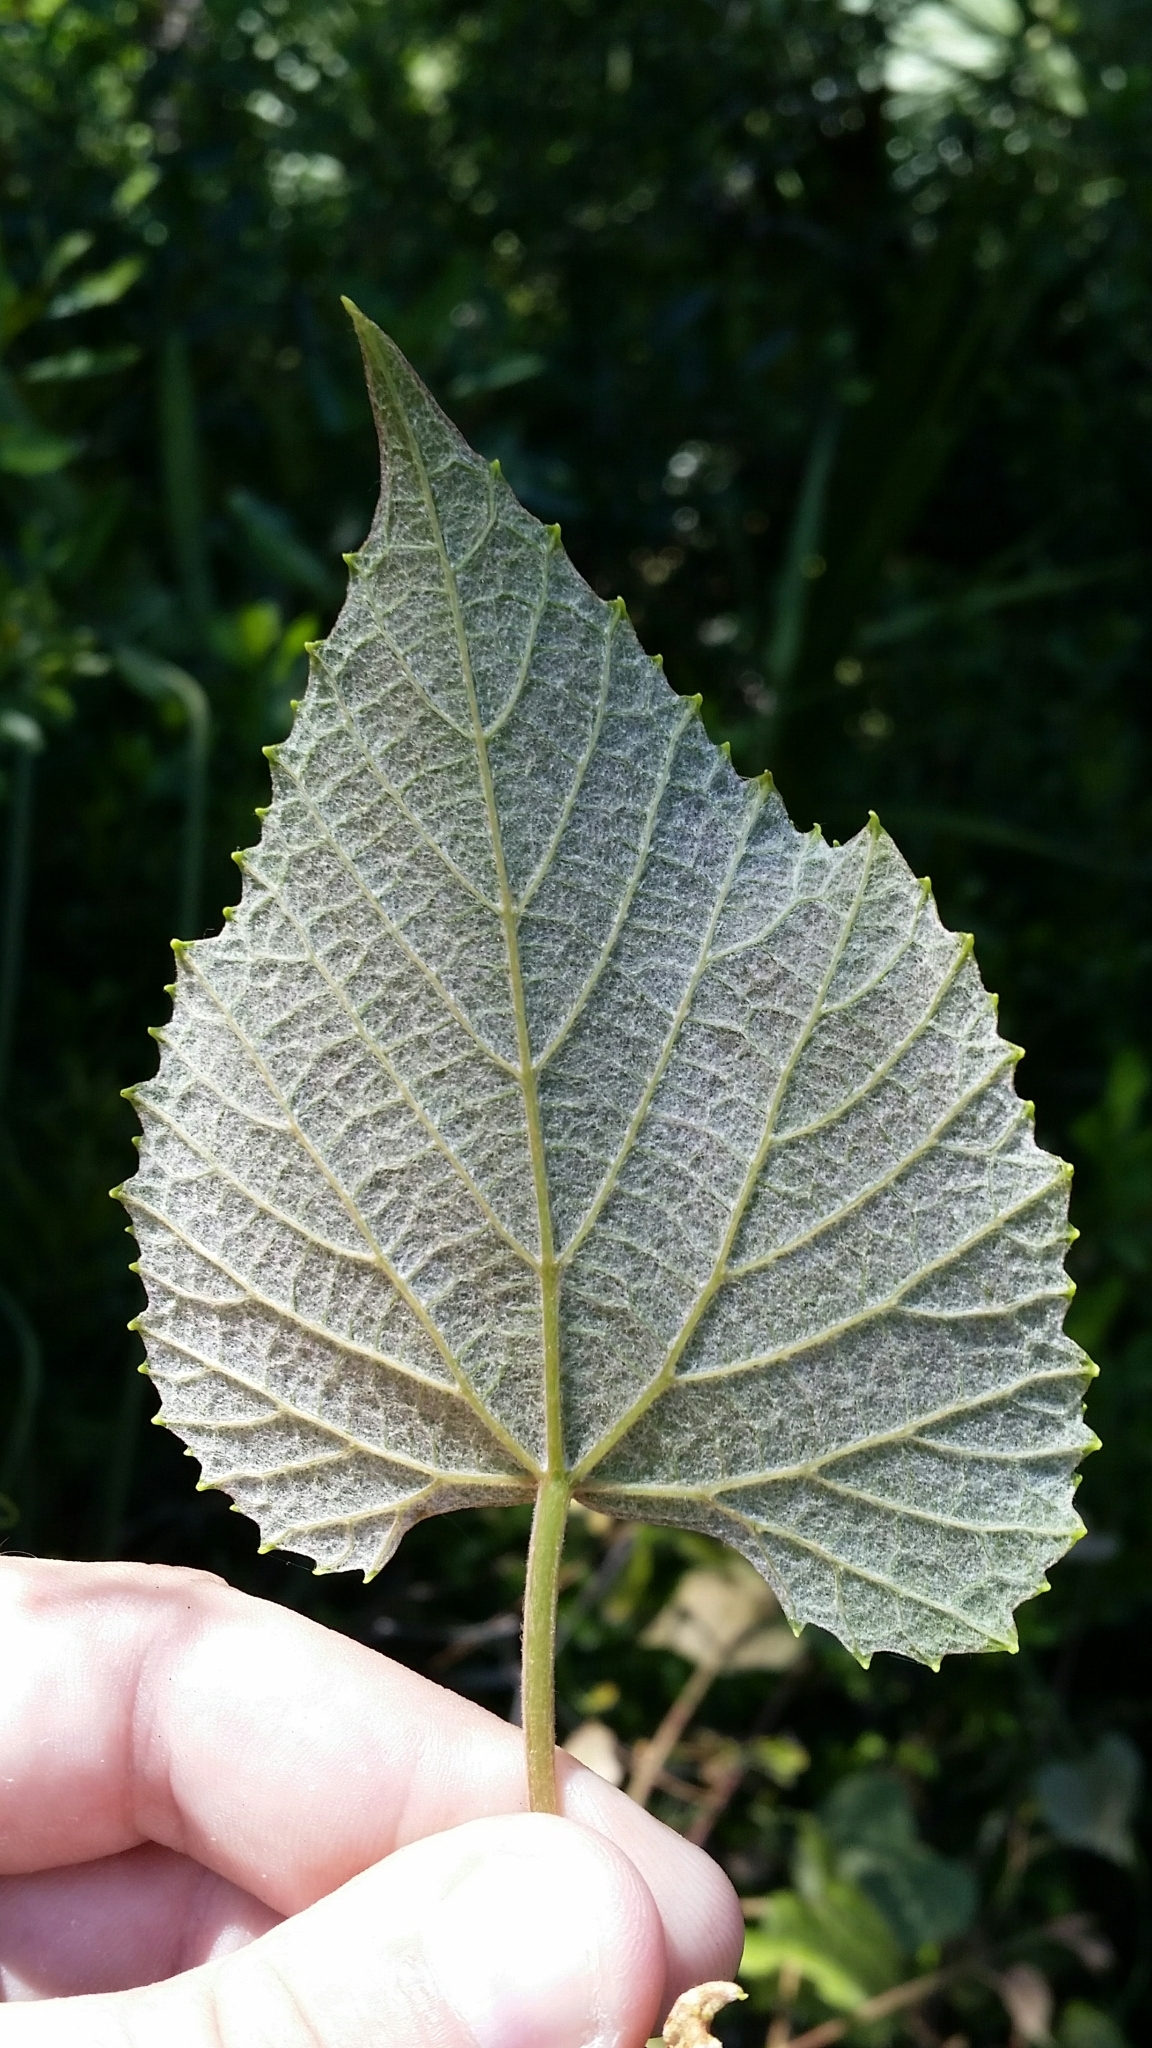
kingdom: Plantae
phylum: Tracheophyta
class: Magnoliopsida
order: Vitales
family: Vitaceae
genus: Vitis
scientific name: Vitis cinerea
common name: Ashy grape
